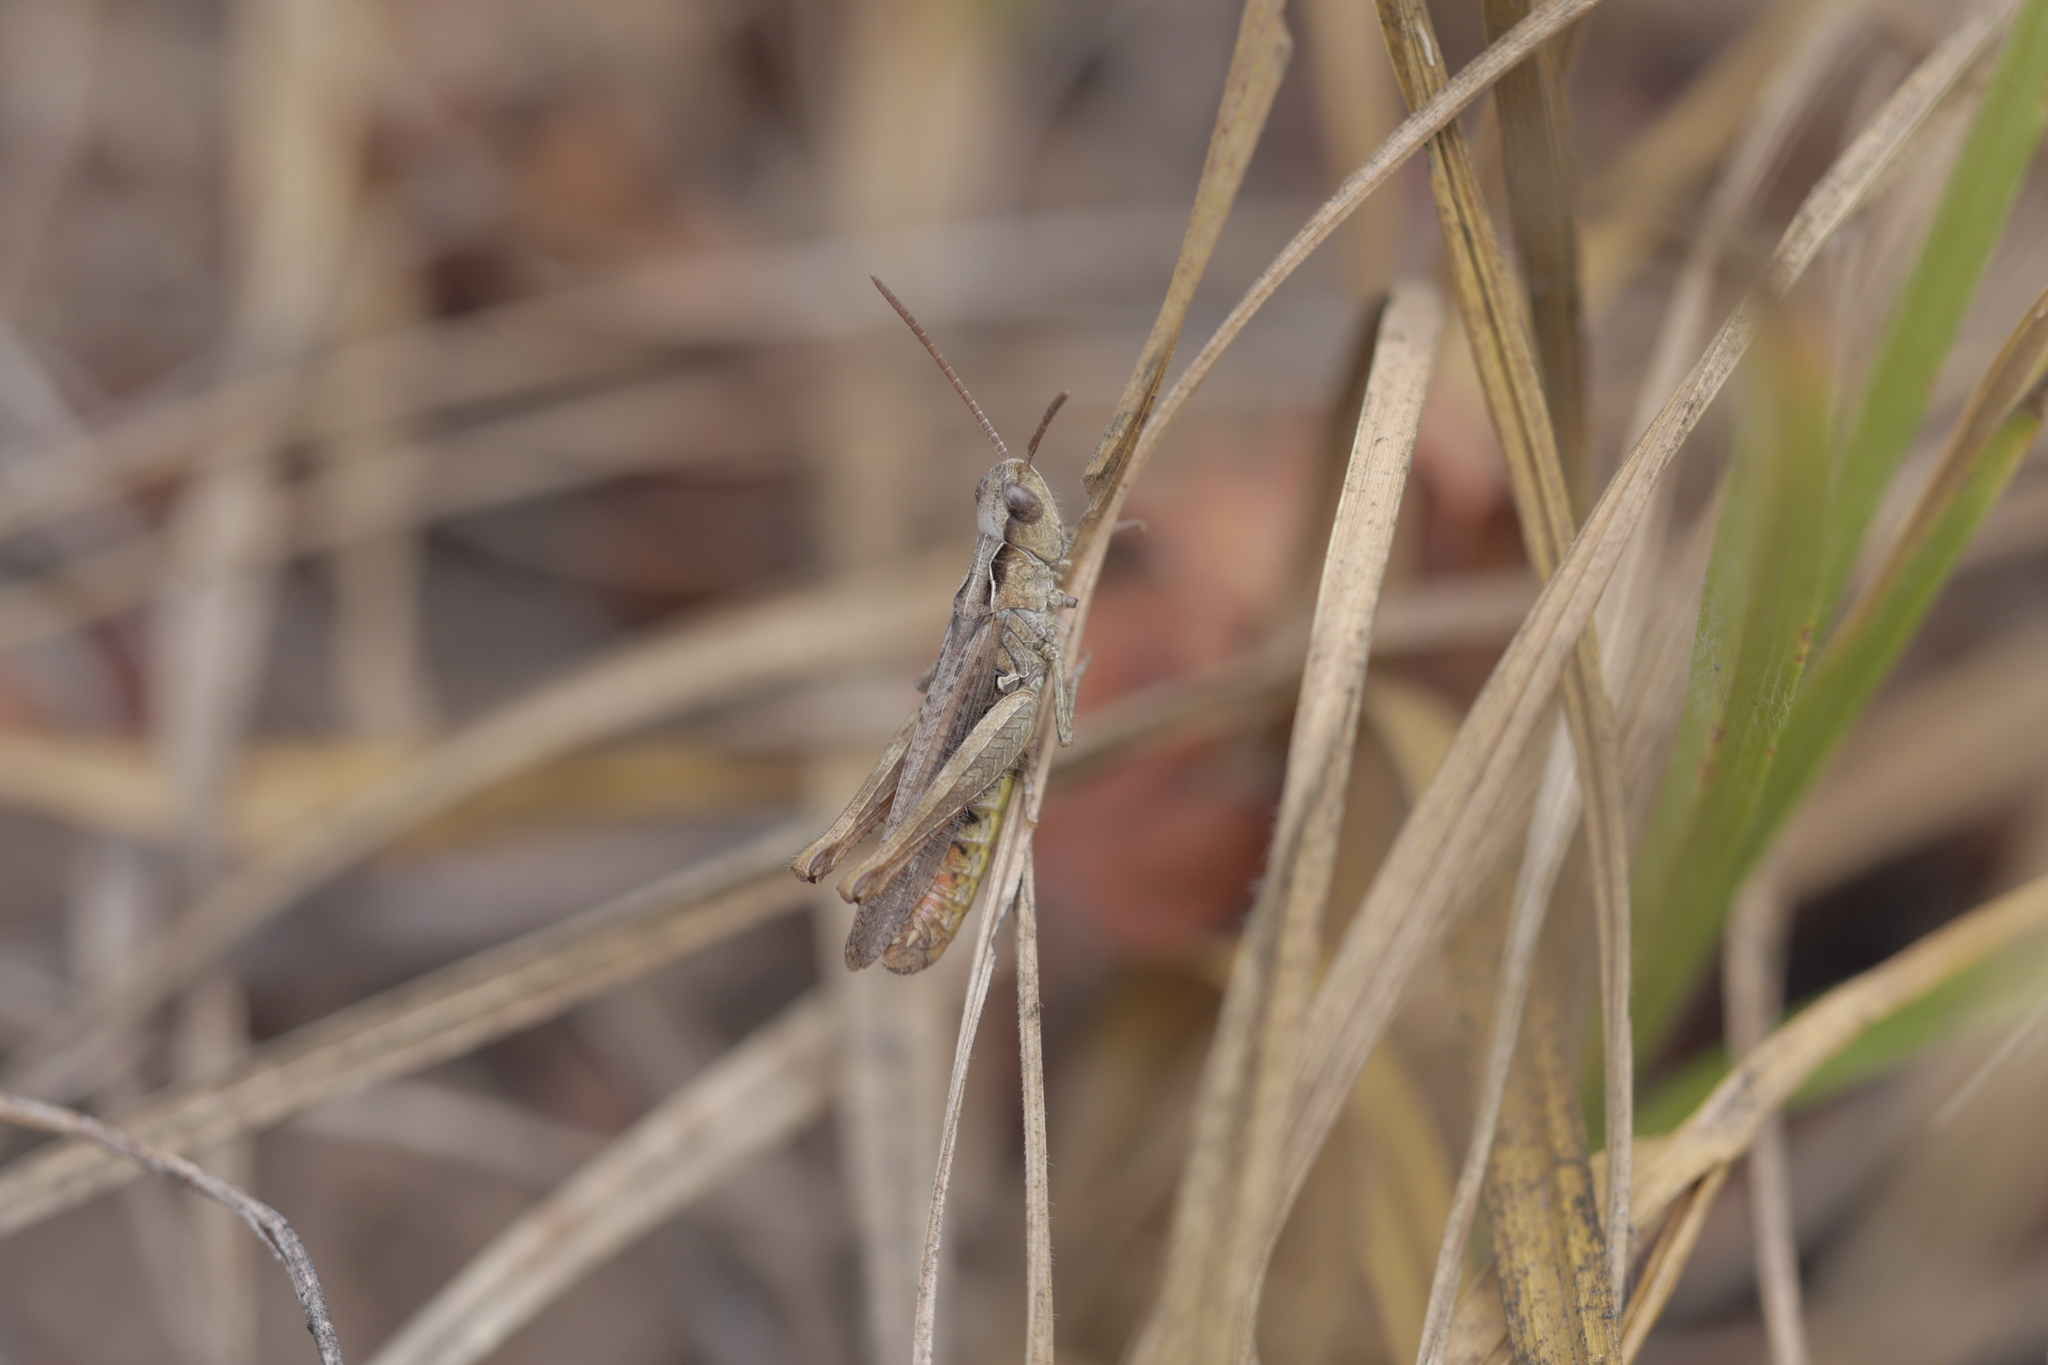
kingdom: Animalia
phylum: Arthropoda
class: Insecta
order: Orthoptera
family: Acrididae
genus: Chorthippus
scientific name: Chorthippus brunneus
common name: Field grasshopper
